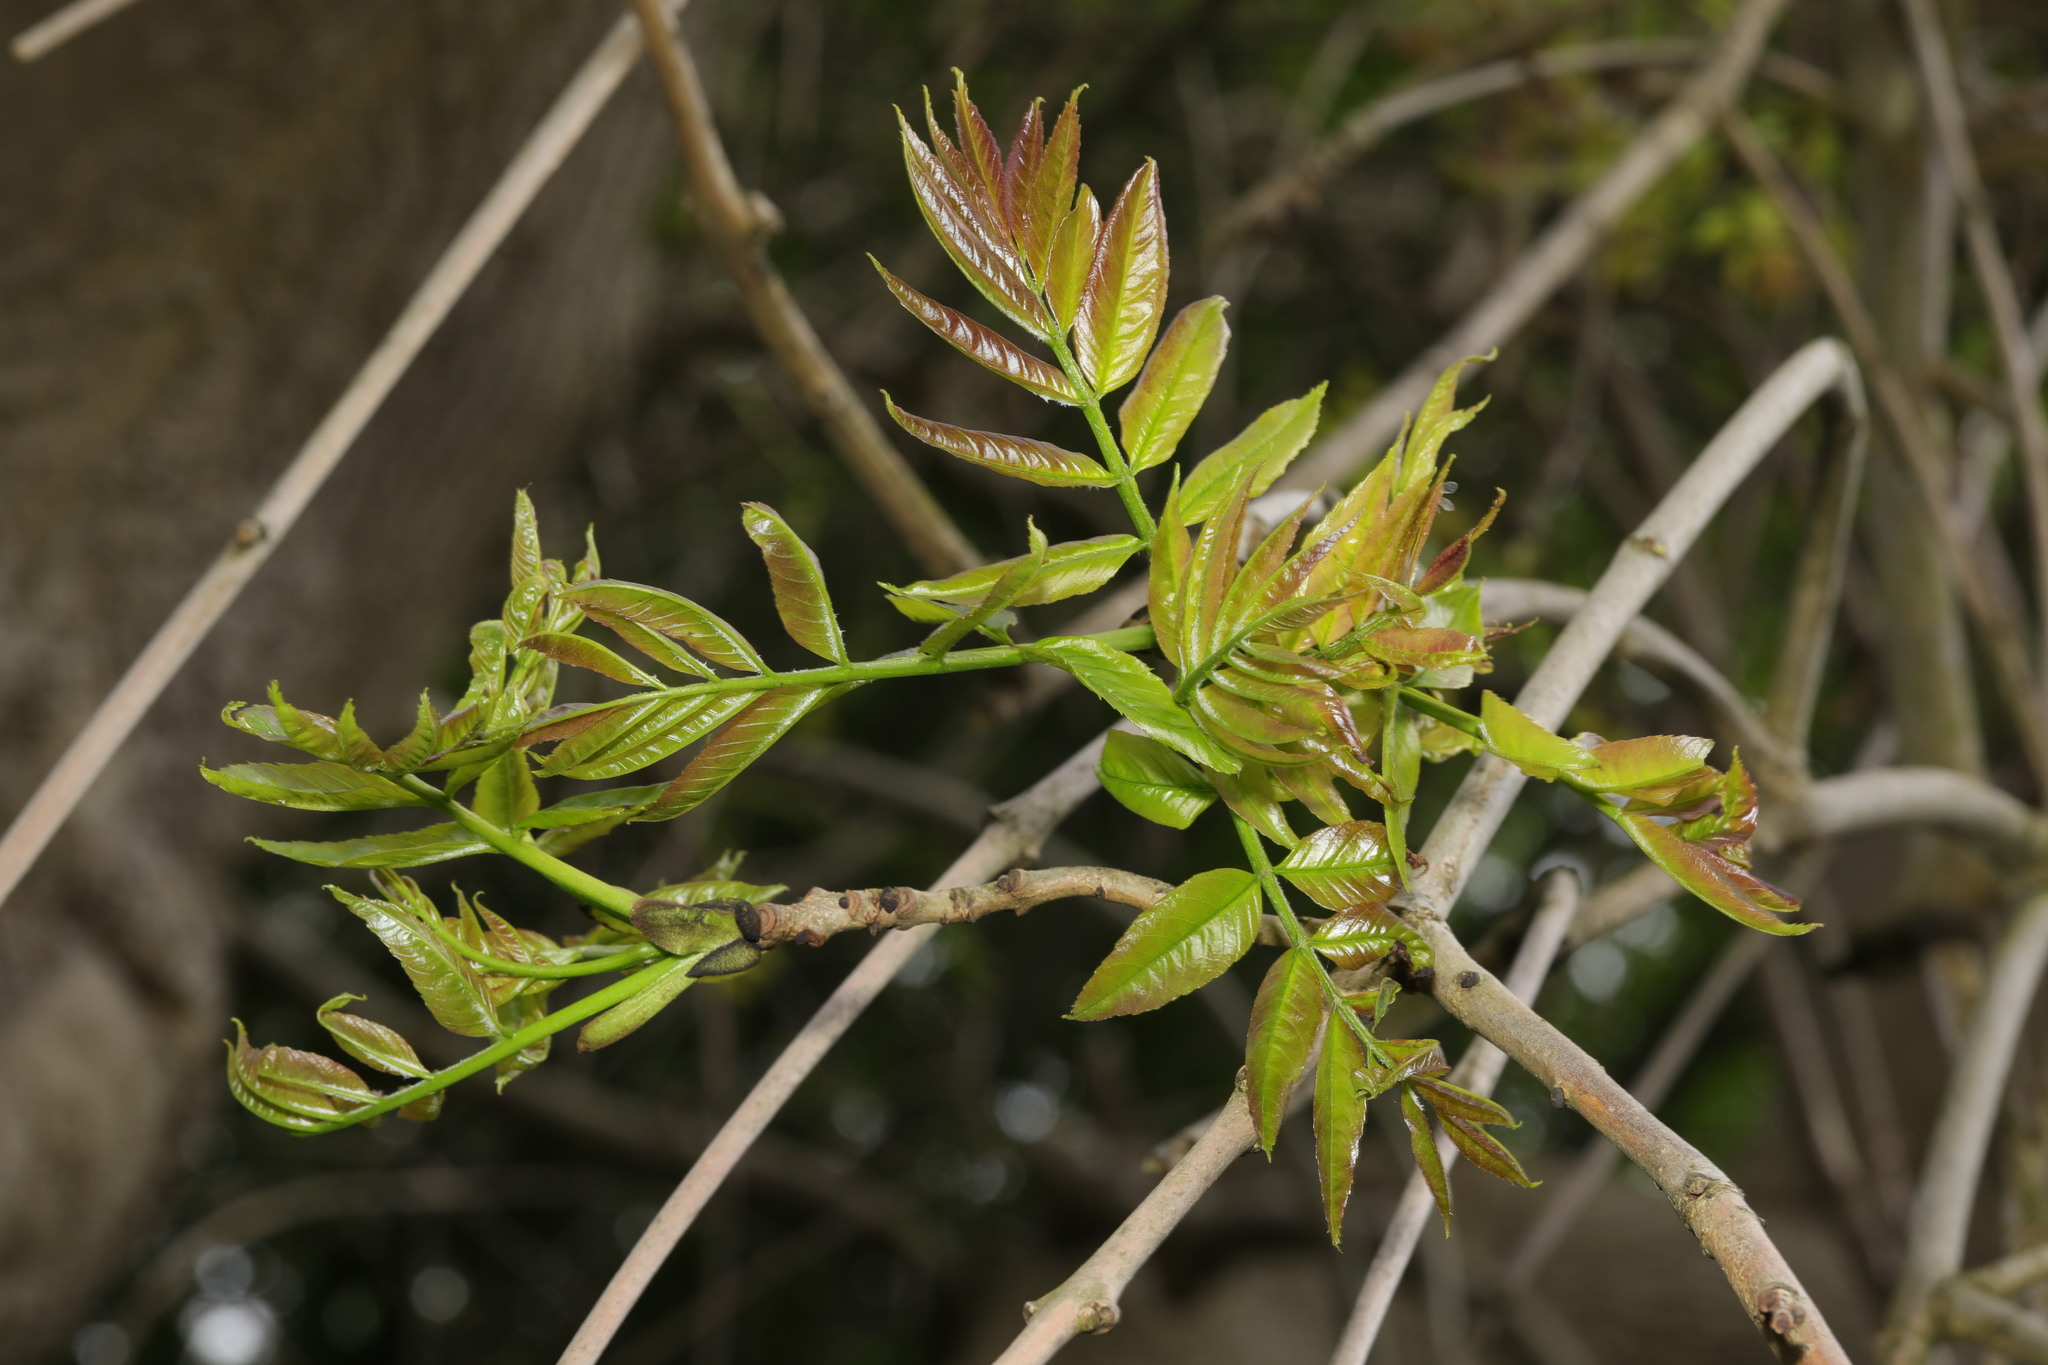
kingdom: Plantae
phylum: Tracheophyta
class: Magnoliopsida
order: Lamiales
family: Oleaceae
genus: Fraxinus
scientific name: Fraxinus excelsior
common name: European ash
